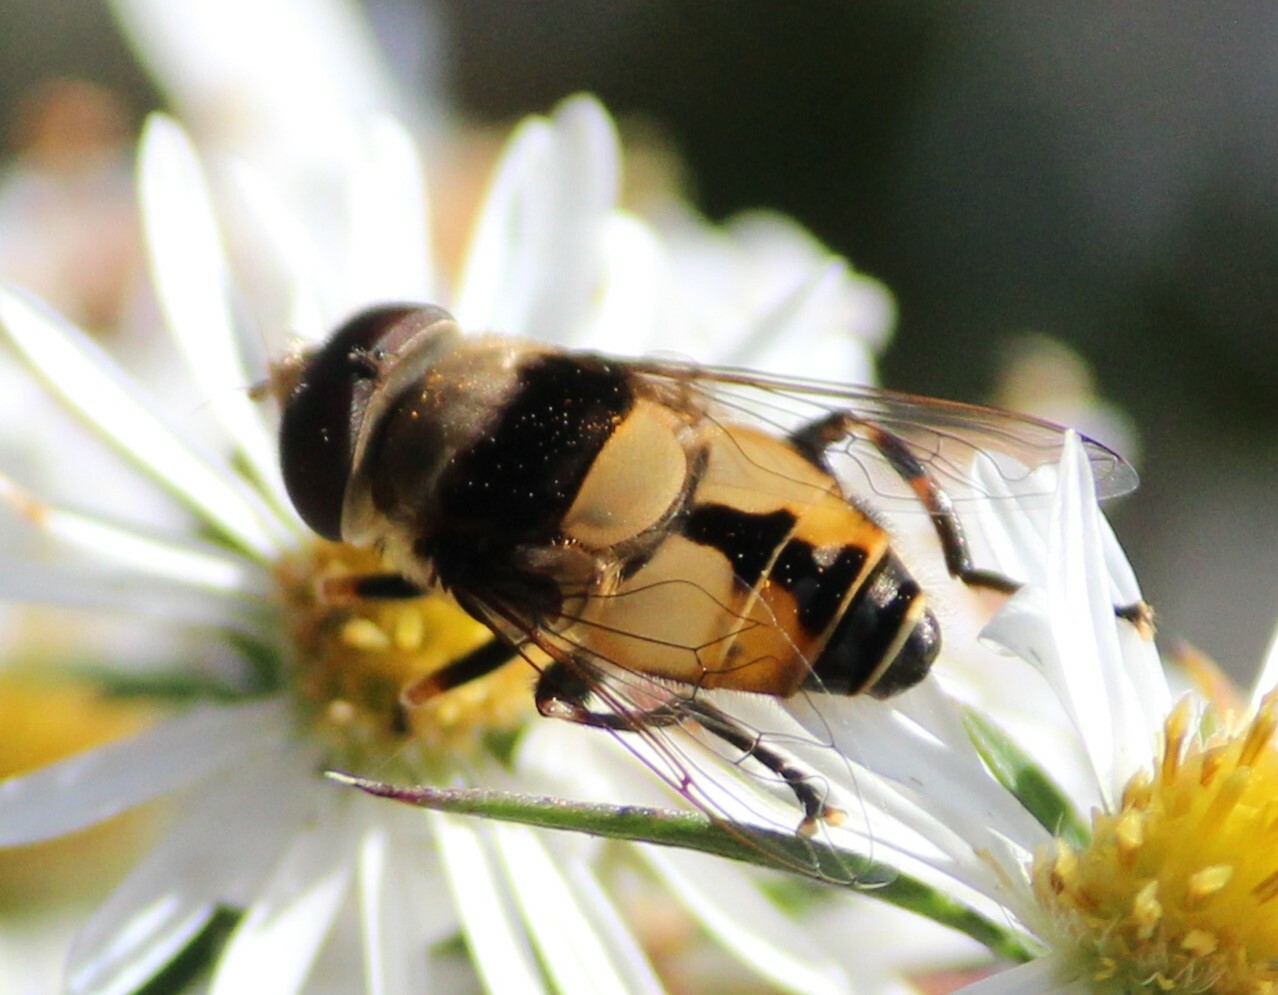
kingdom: Animalia
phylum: Arthropoda
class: Insecta
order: Diptera
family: Syrphidae
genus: Palpada
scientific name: Palpada pusilla
